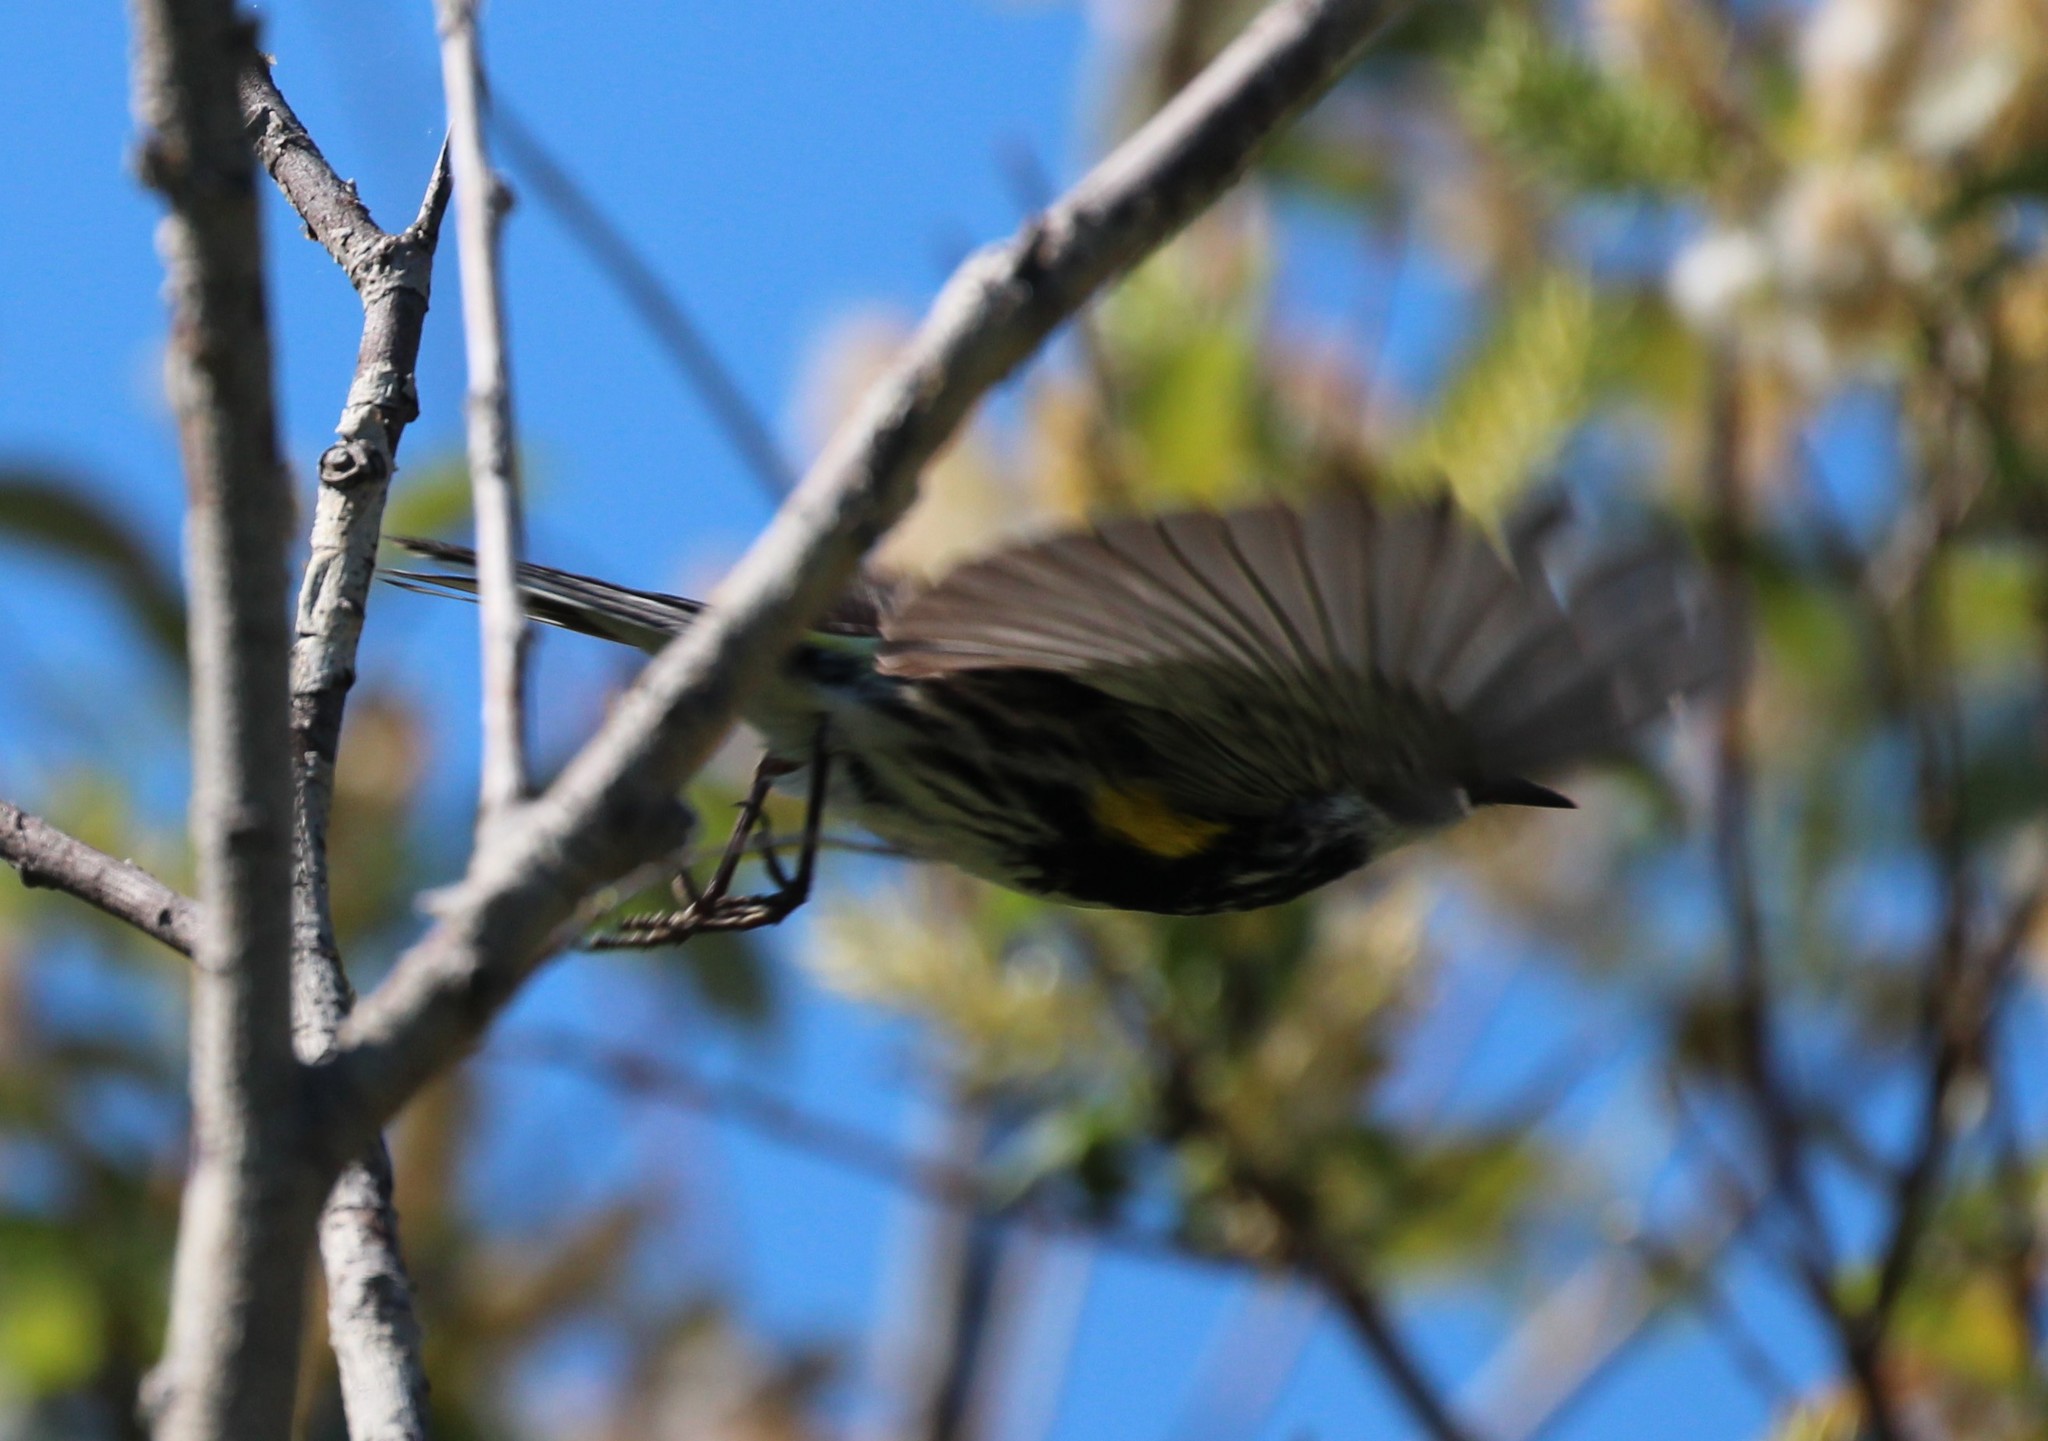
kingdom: Animalia
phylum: Chordata
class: Aves
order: Passeriformes
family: Parulidae
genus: Setophaga
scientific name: Setophaga coronata
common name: Myrtle warbler
